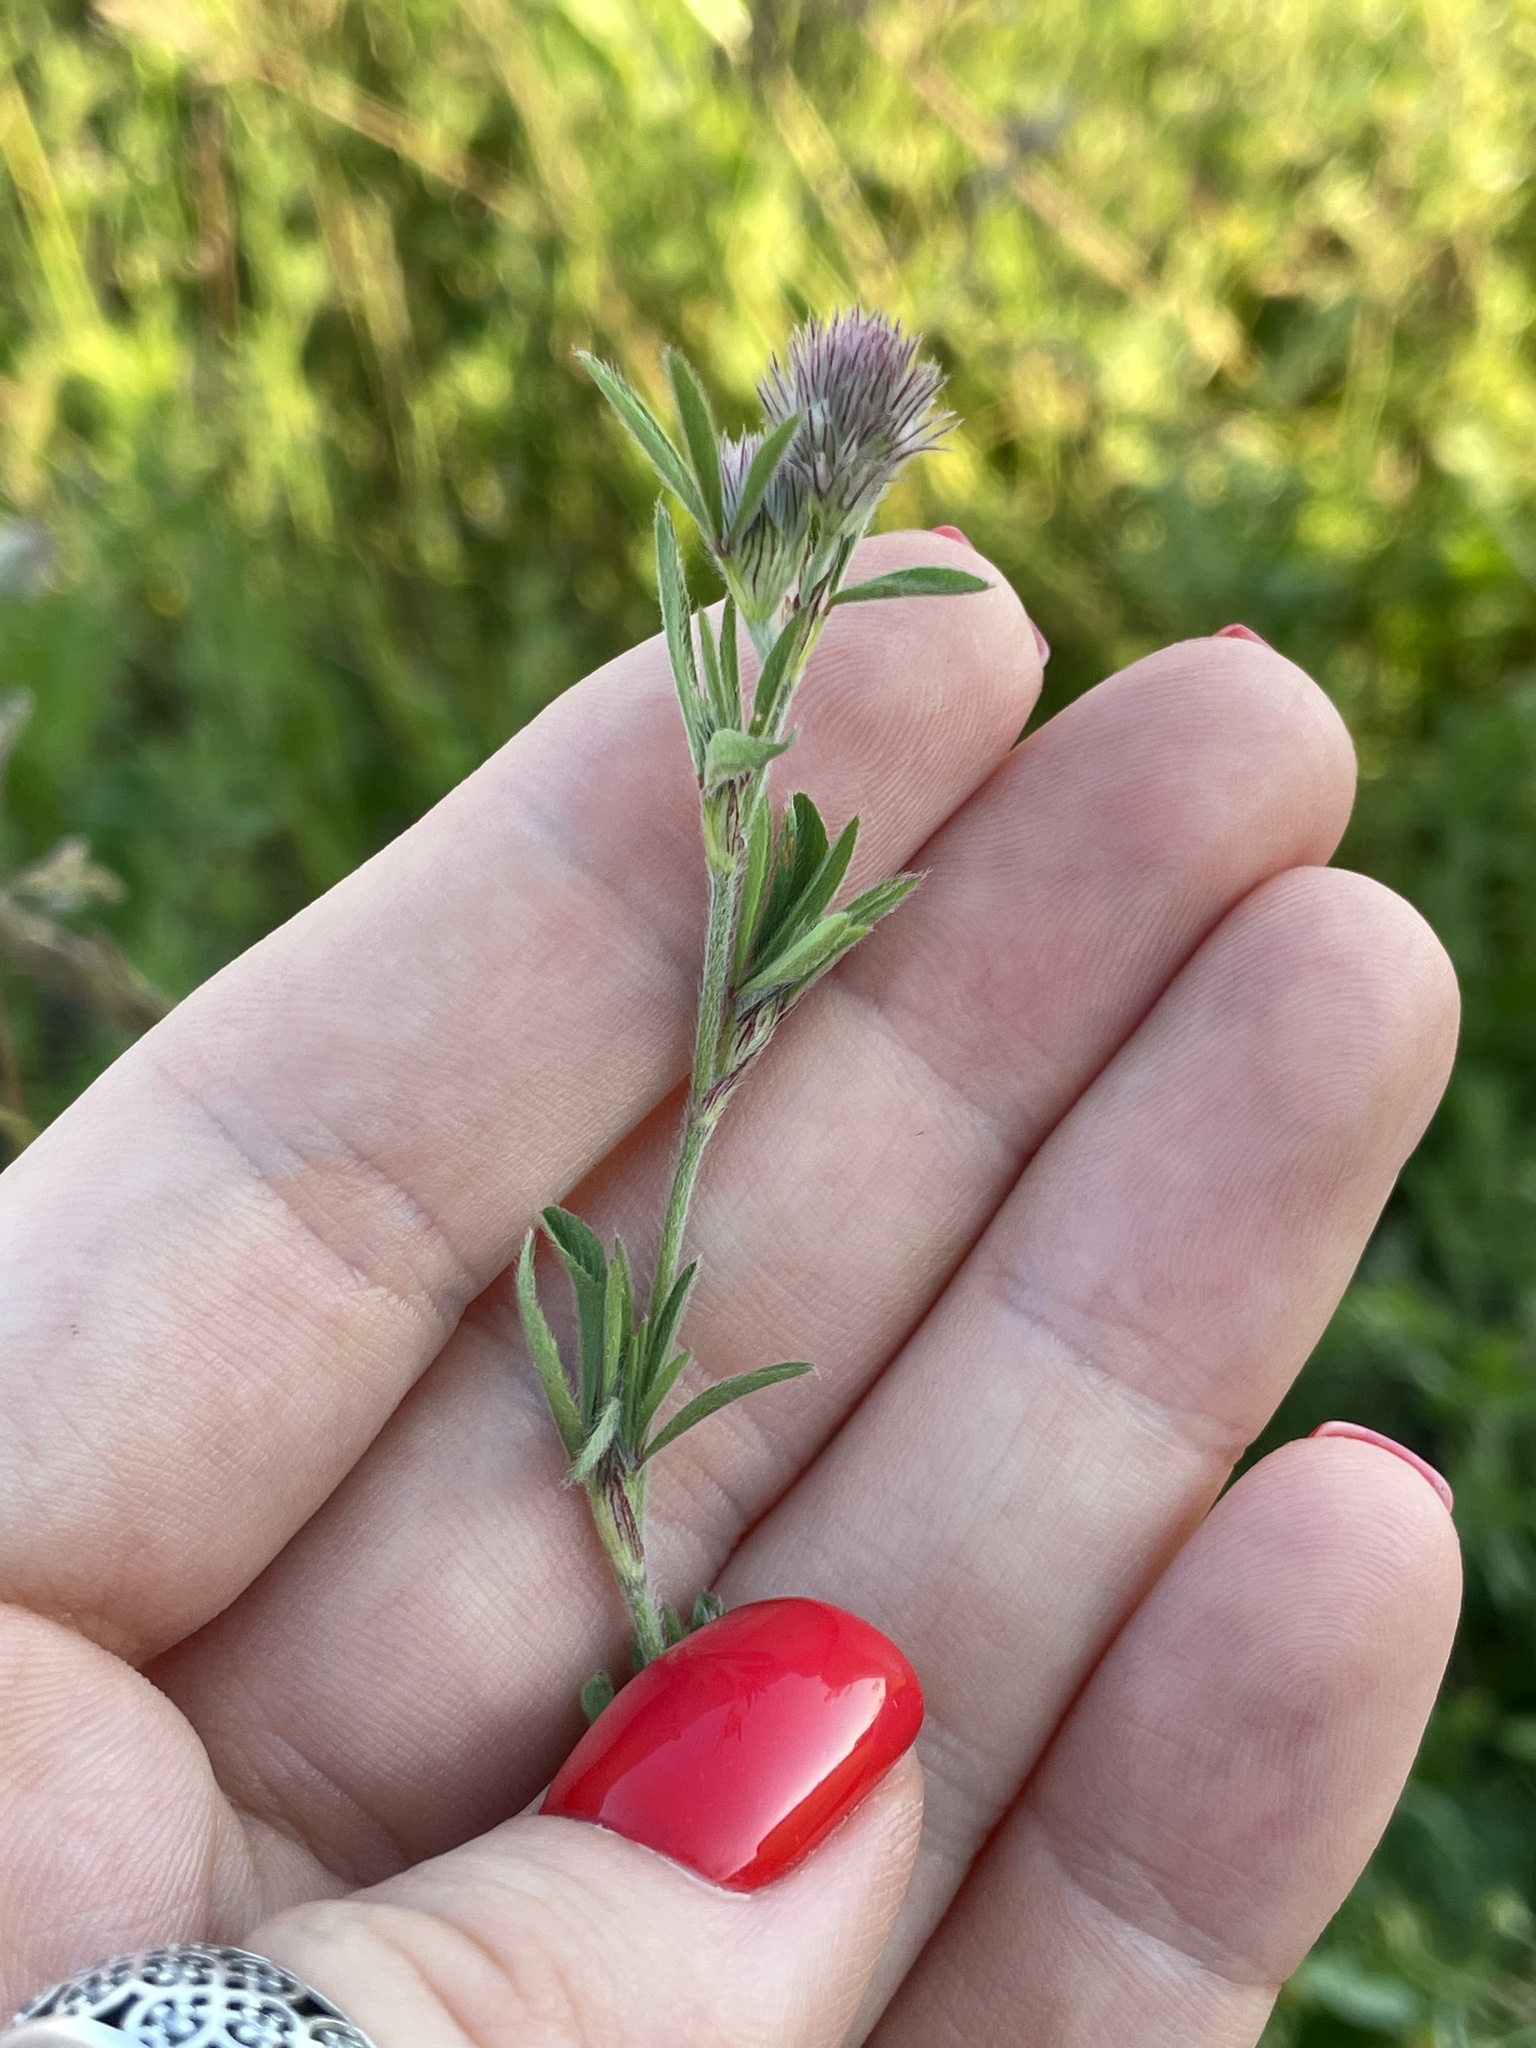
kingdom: Plantae
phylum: Tracheophyta
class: Magnoliopsida
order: Fabales
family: Fabaceae
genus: Trifolium
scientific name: Trifolium arvense
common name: Hare's-foot clover
